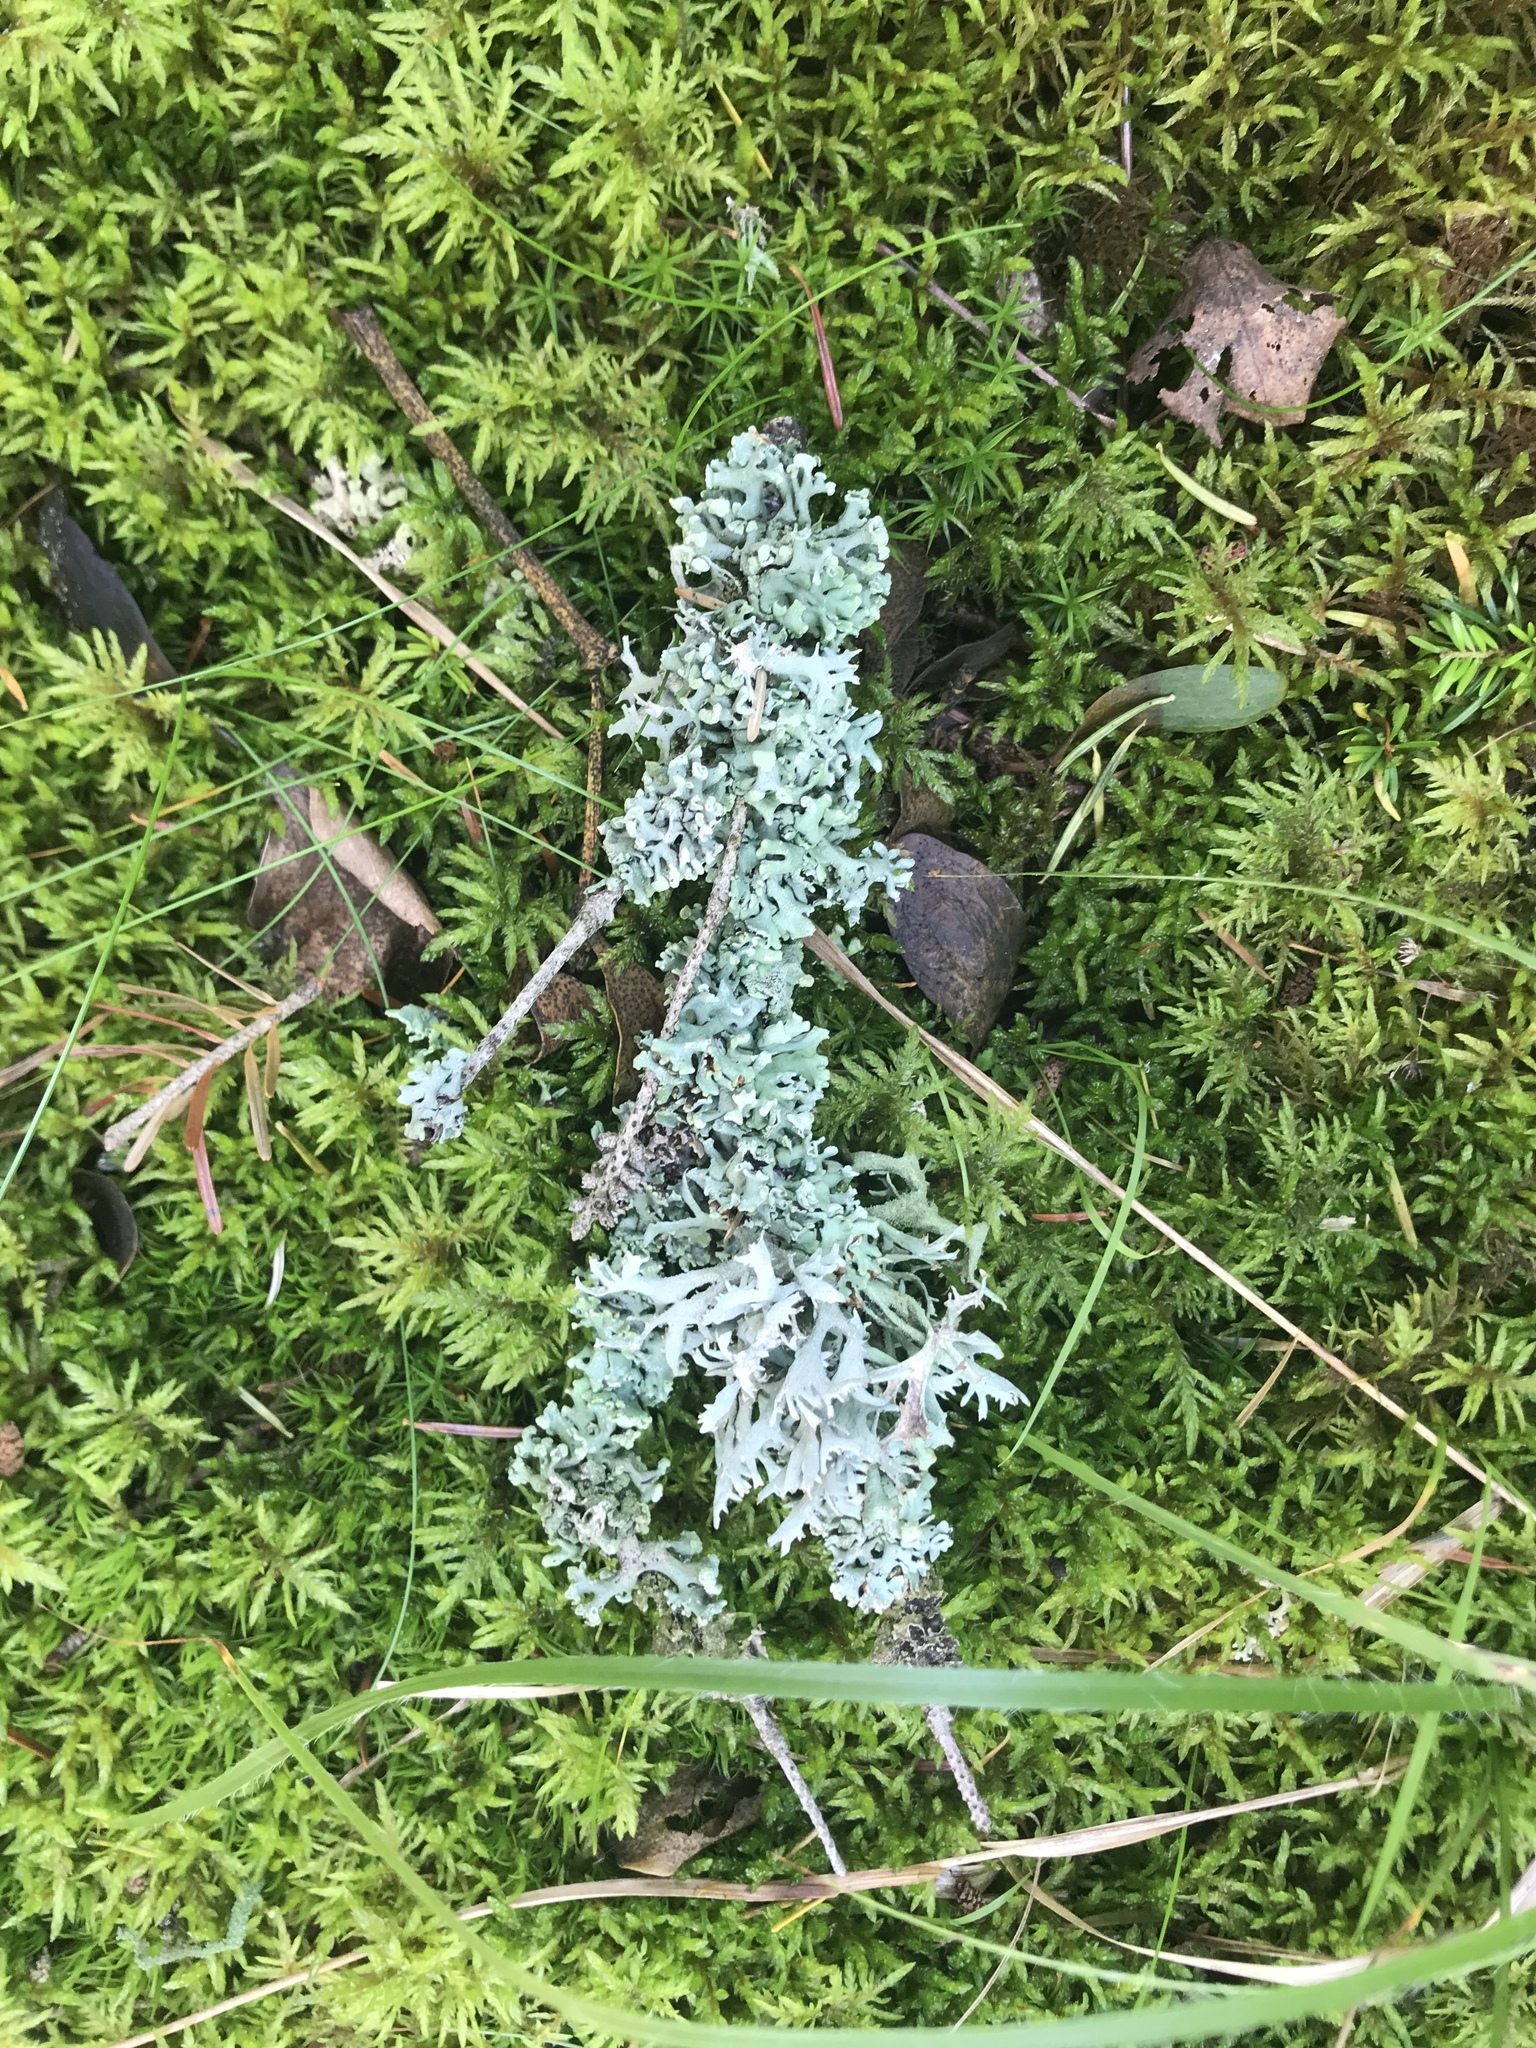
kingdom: Fungi
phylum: Ascomycota
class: Lecanoromycetes
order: Lecanorales
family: Parmeliaceae
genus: Hypogymnia
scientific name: Hypogymnia tubulosa
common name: Powder-headed tube lichen
